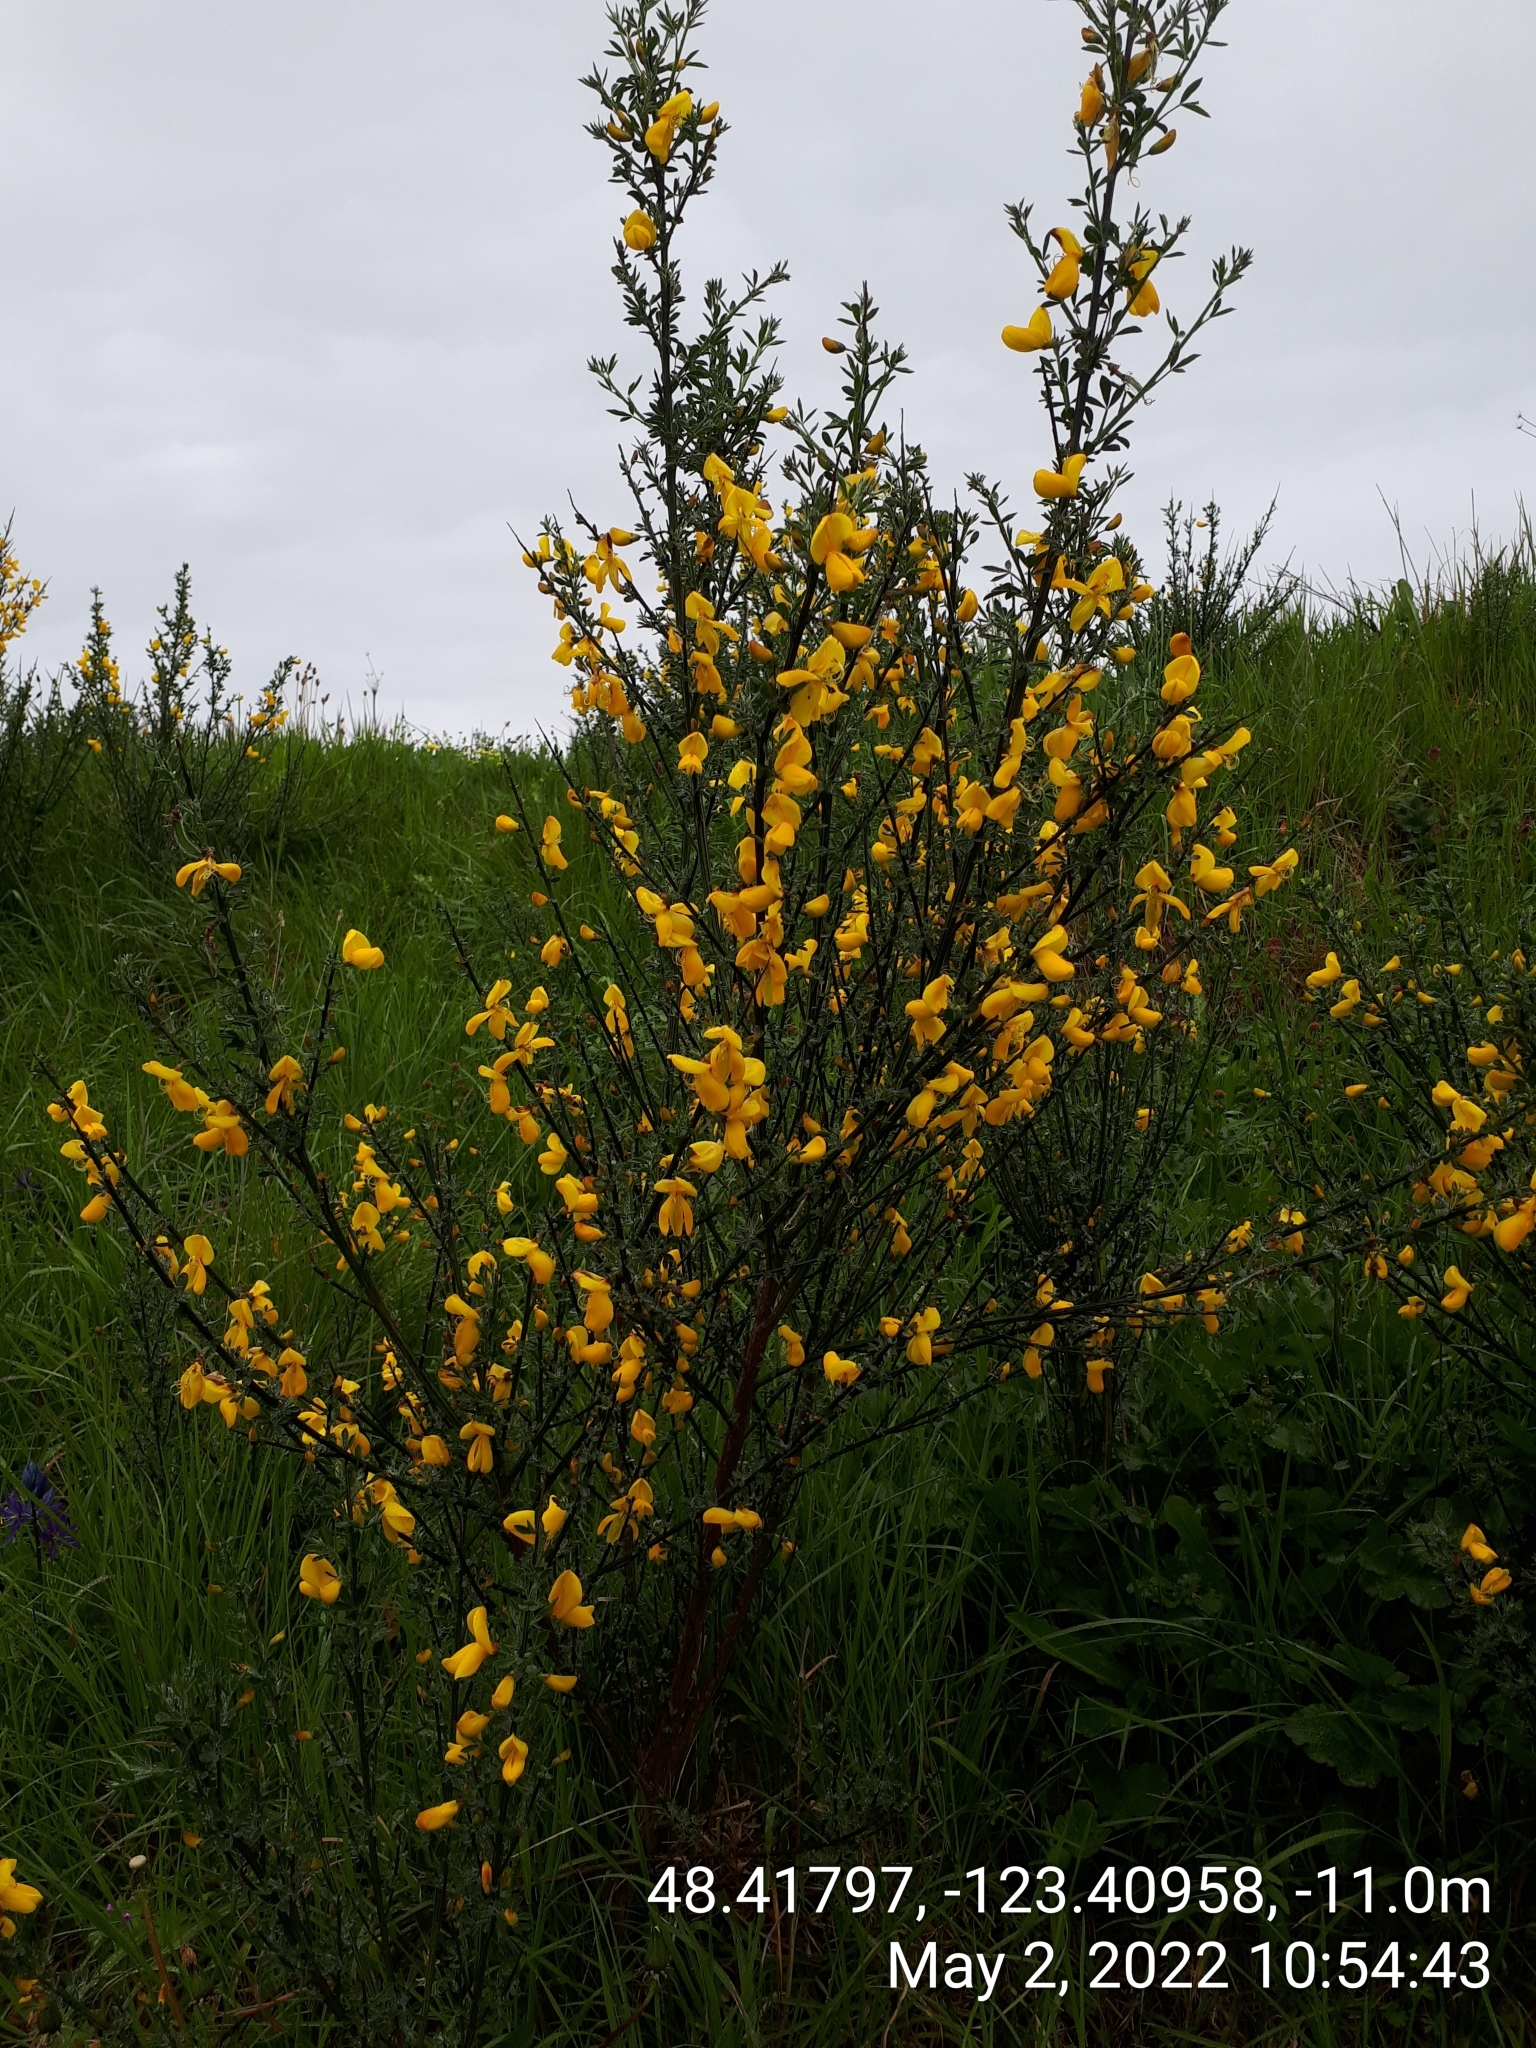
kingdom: Plantae
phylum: Tracheophyta
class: Magnoliopsida
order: Fabales
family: Fabaceae
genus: Cytisus
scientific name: Cytisus scoparius
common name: Scotch broom
